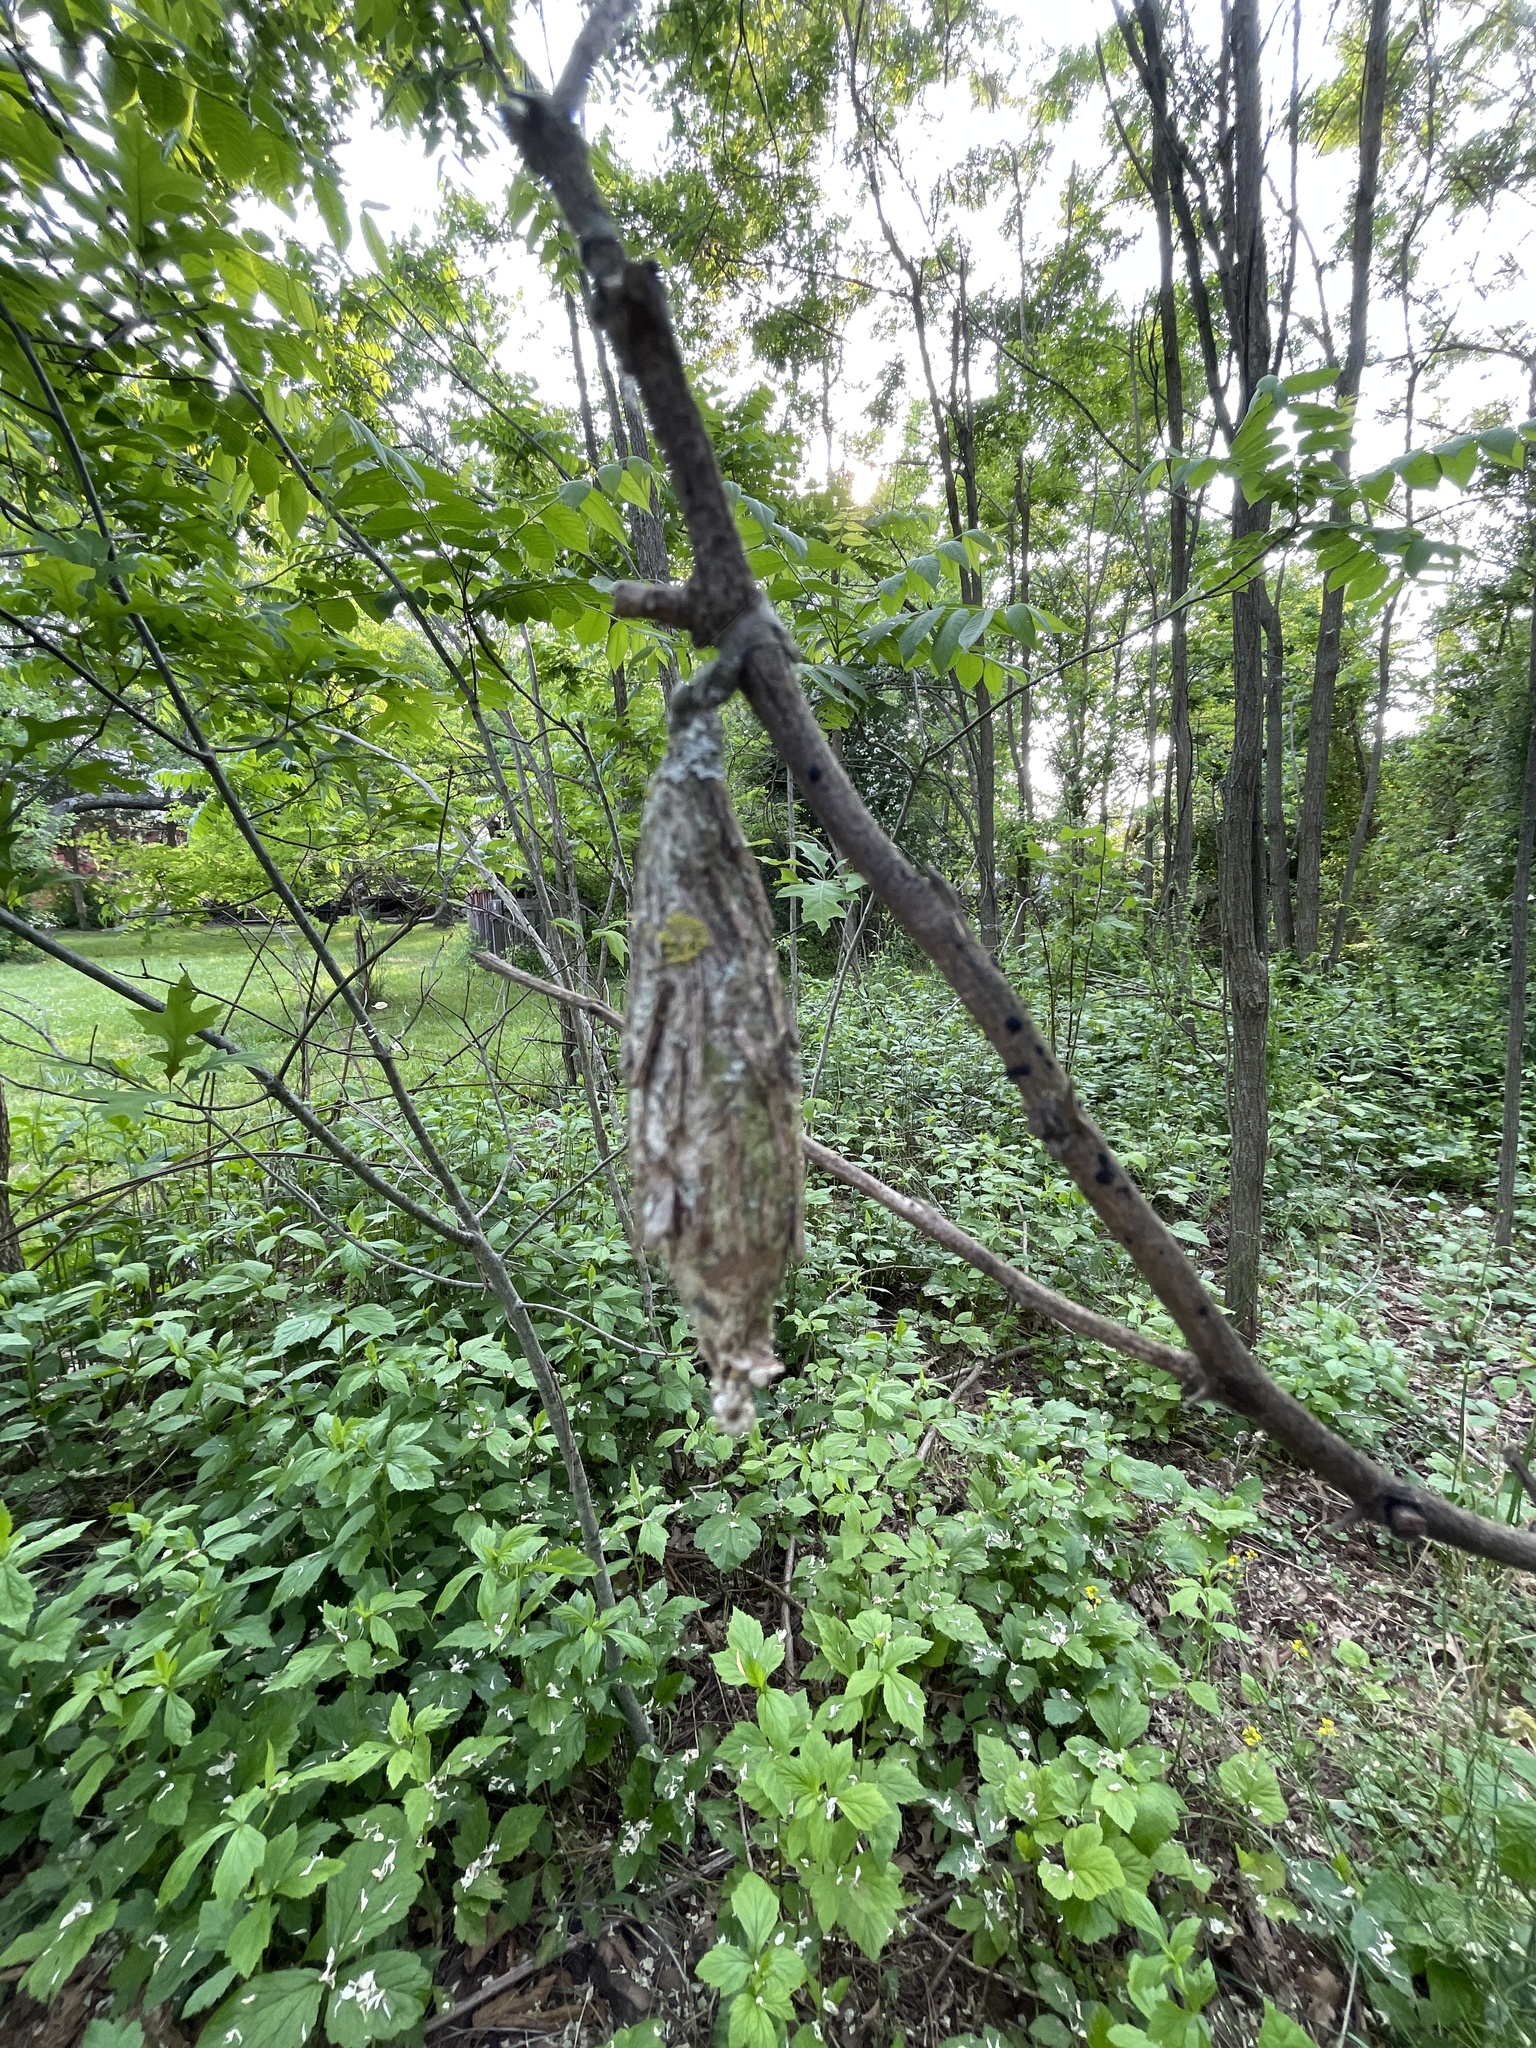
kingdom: Animalia
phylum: Arthropoda
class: Insecta
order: Lepidoptera
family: Psychidae
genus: Thyridopteryx
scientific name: Thyridopteryx ephemeraeformis
